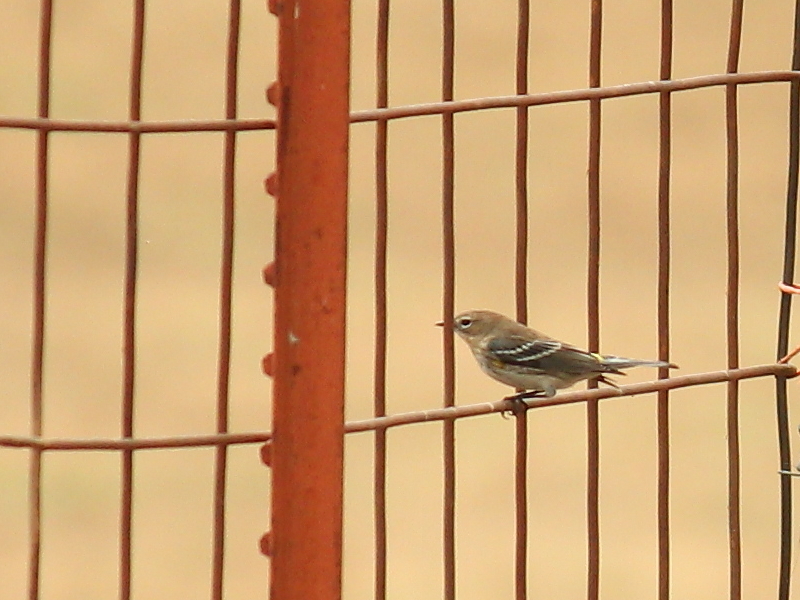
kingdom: Animalia
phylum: Chordata
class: Aves
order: Passeriformes
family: Parulidae
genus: Setophaga
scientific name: Setophaga coronata
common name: Myrtle warbler
